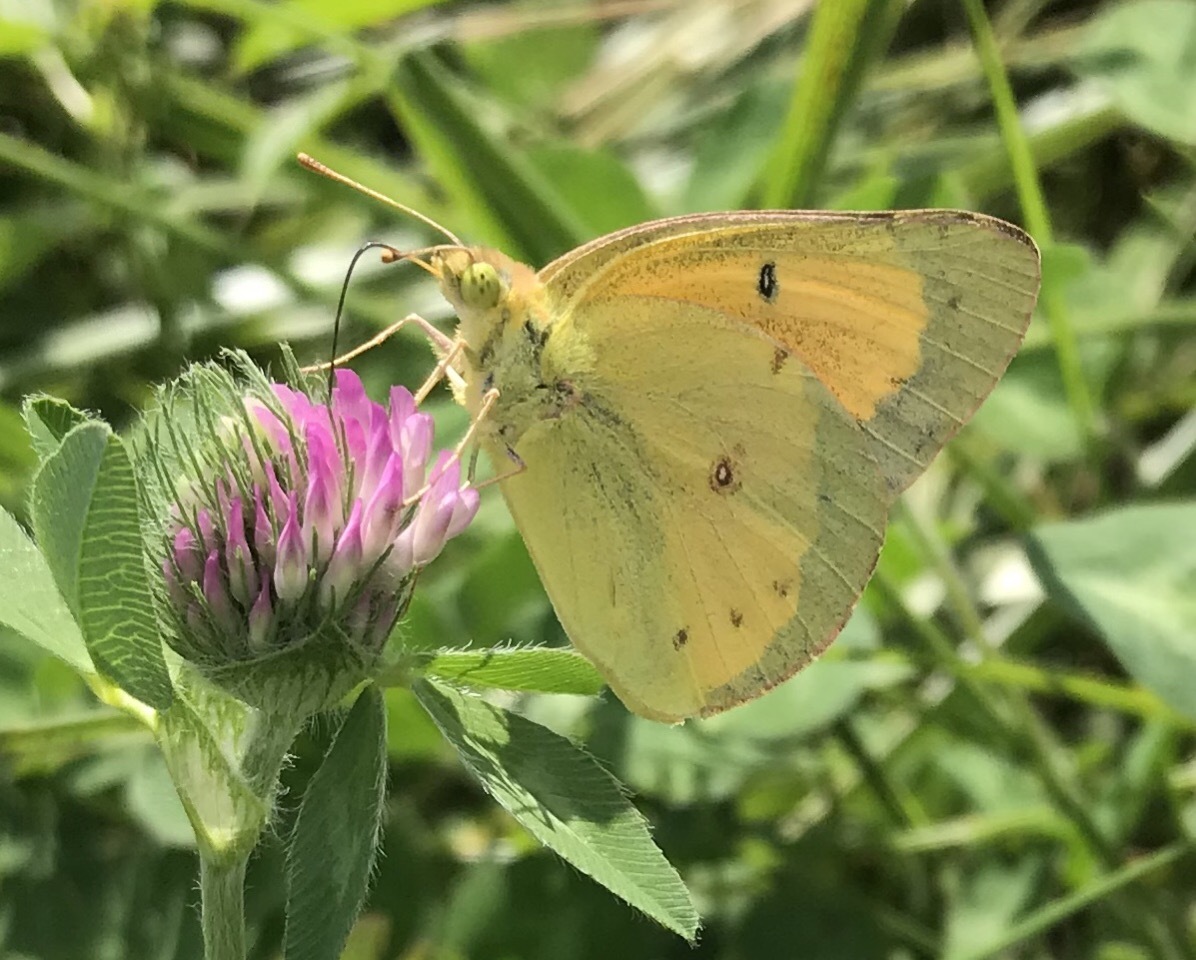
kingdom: Animalia
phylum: Arthropoda
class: Insecta
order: Lepidoptera
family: Pieridae
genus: Colias
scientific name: Colias eurytheme
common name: Alfalfa butterfly
